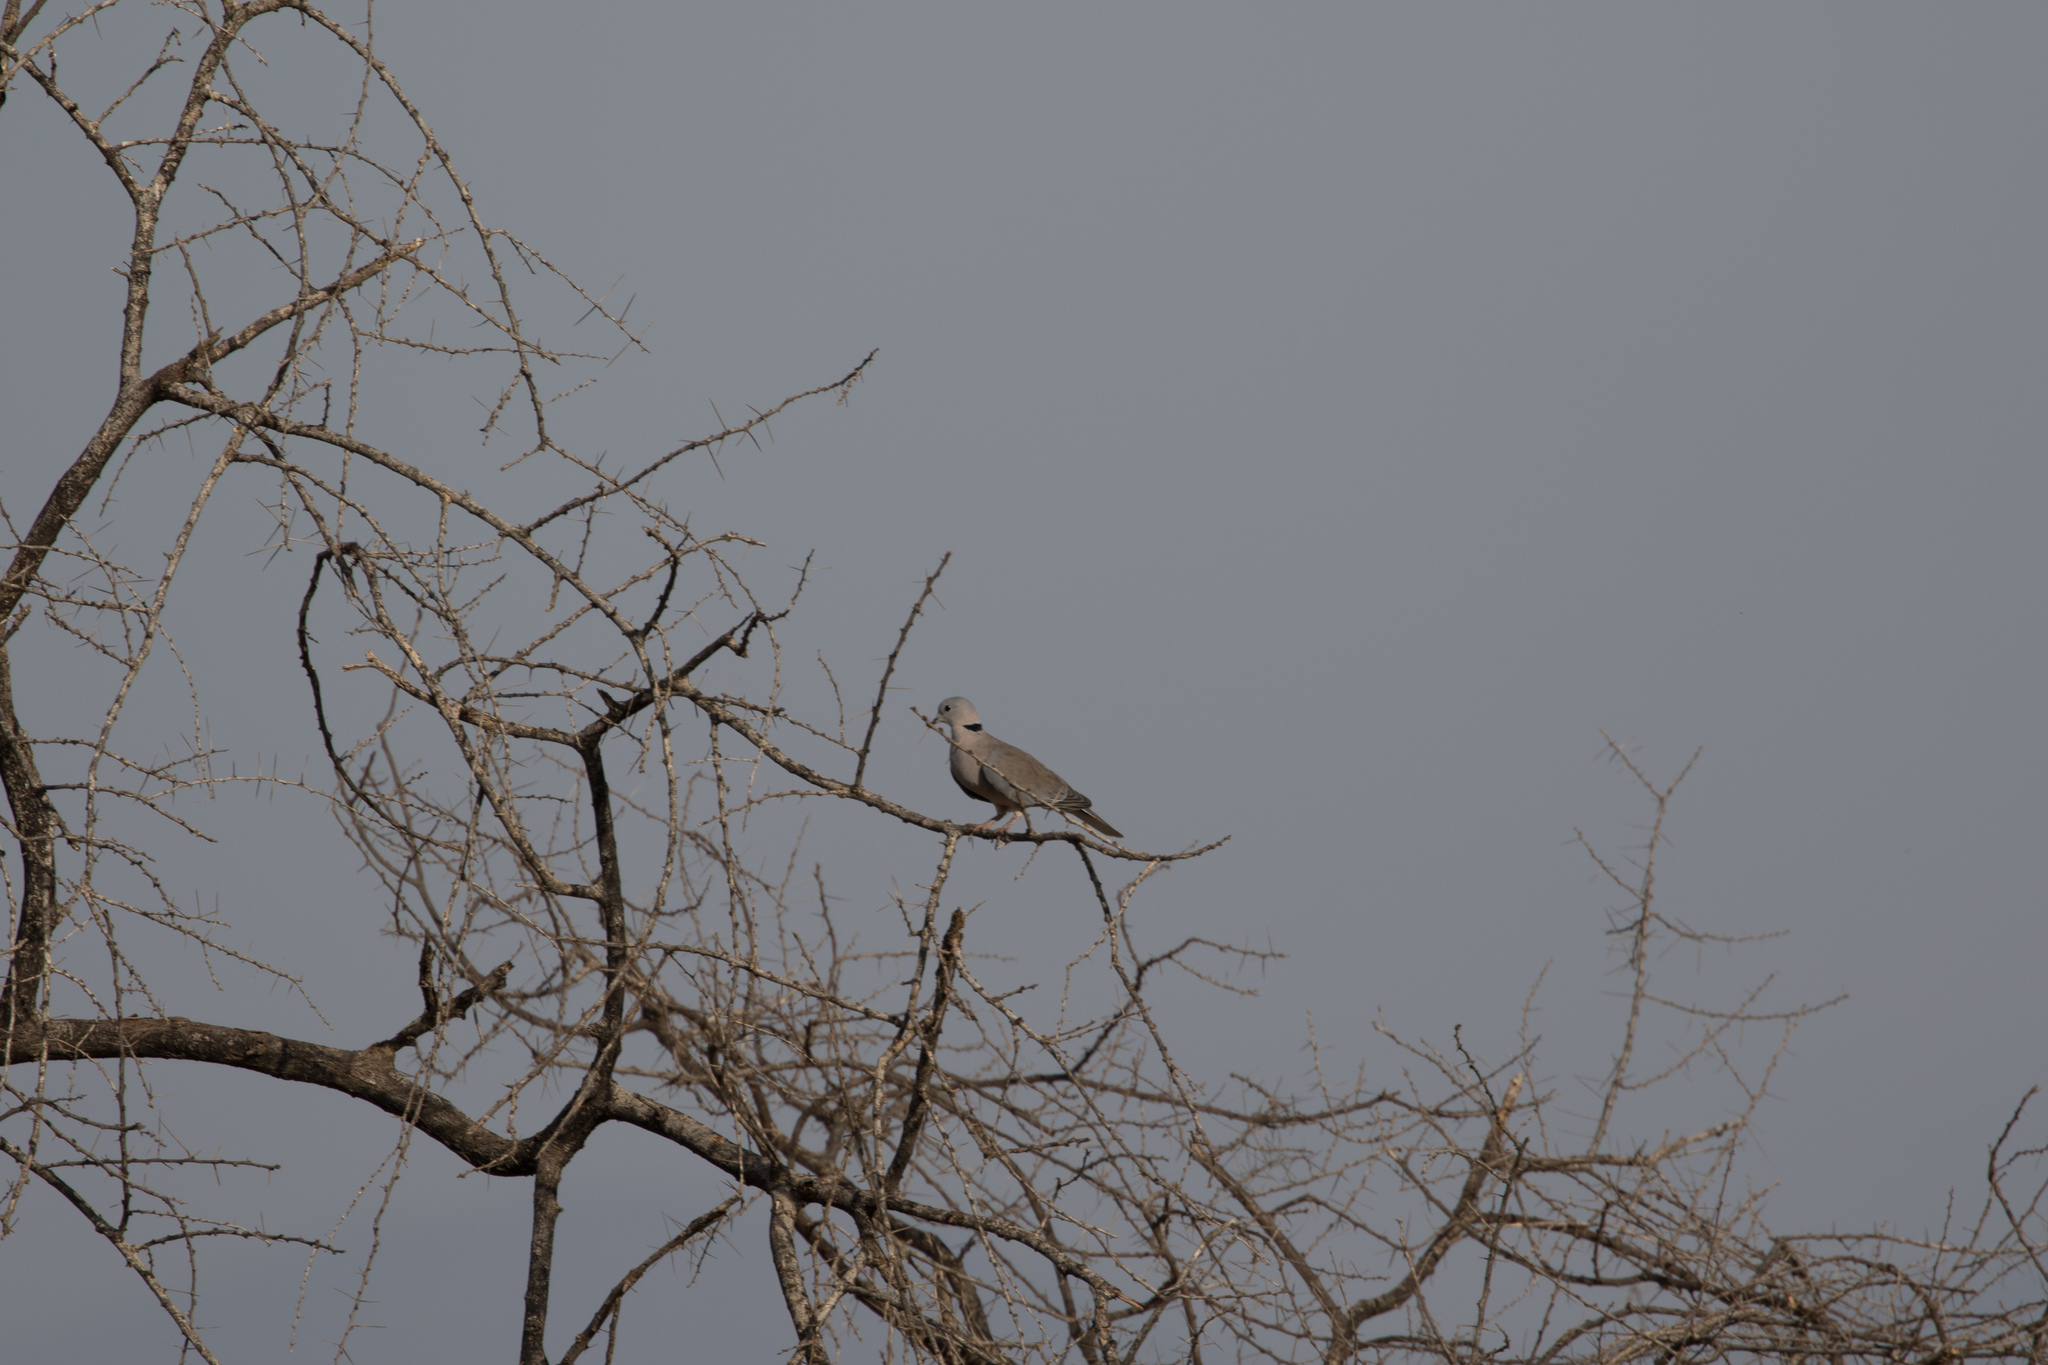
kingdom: Animalia
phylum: Chordata
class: Aves
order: Columbiformes
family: Columbidae
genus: Streptopelia
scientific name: Streptopelia capicola
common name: Ring-necked dove
